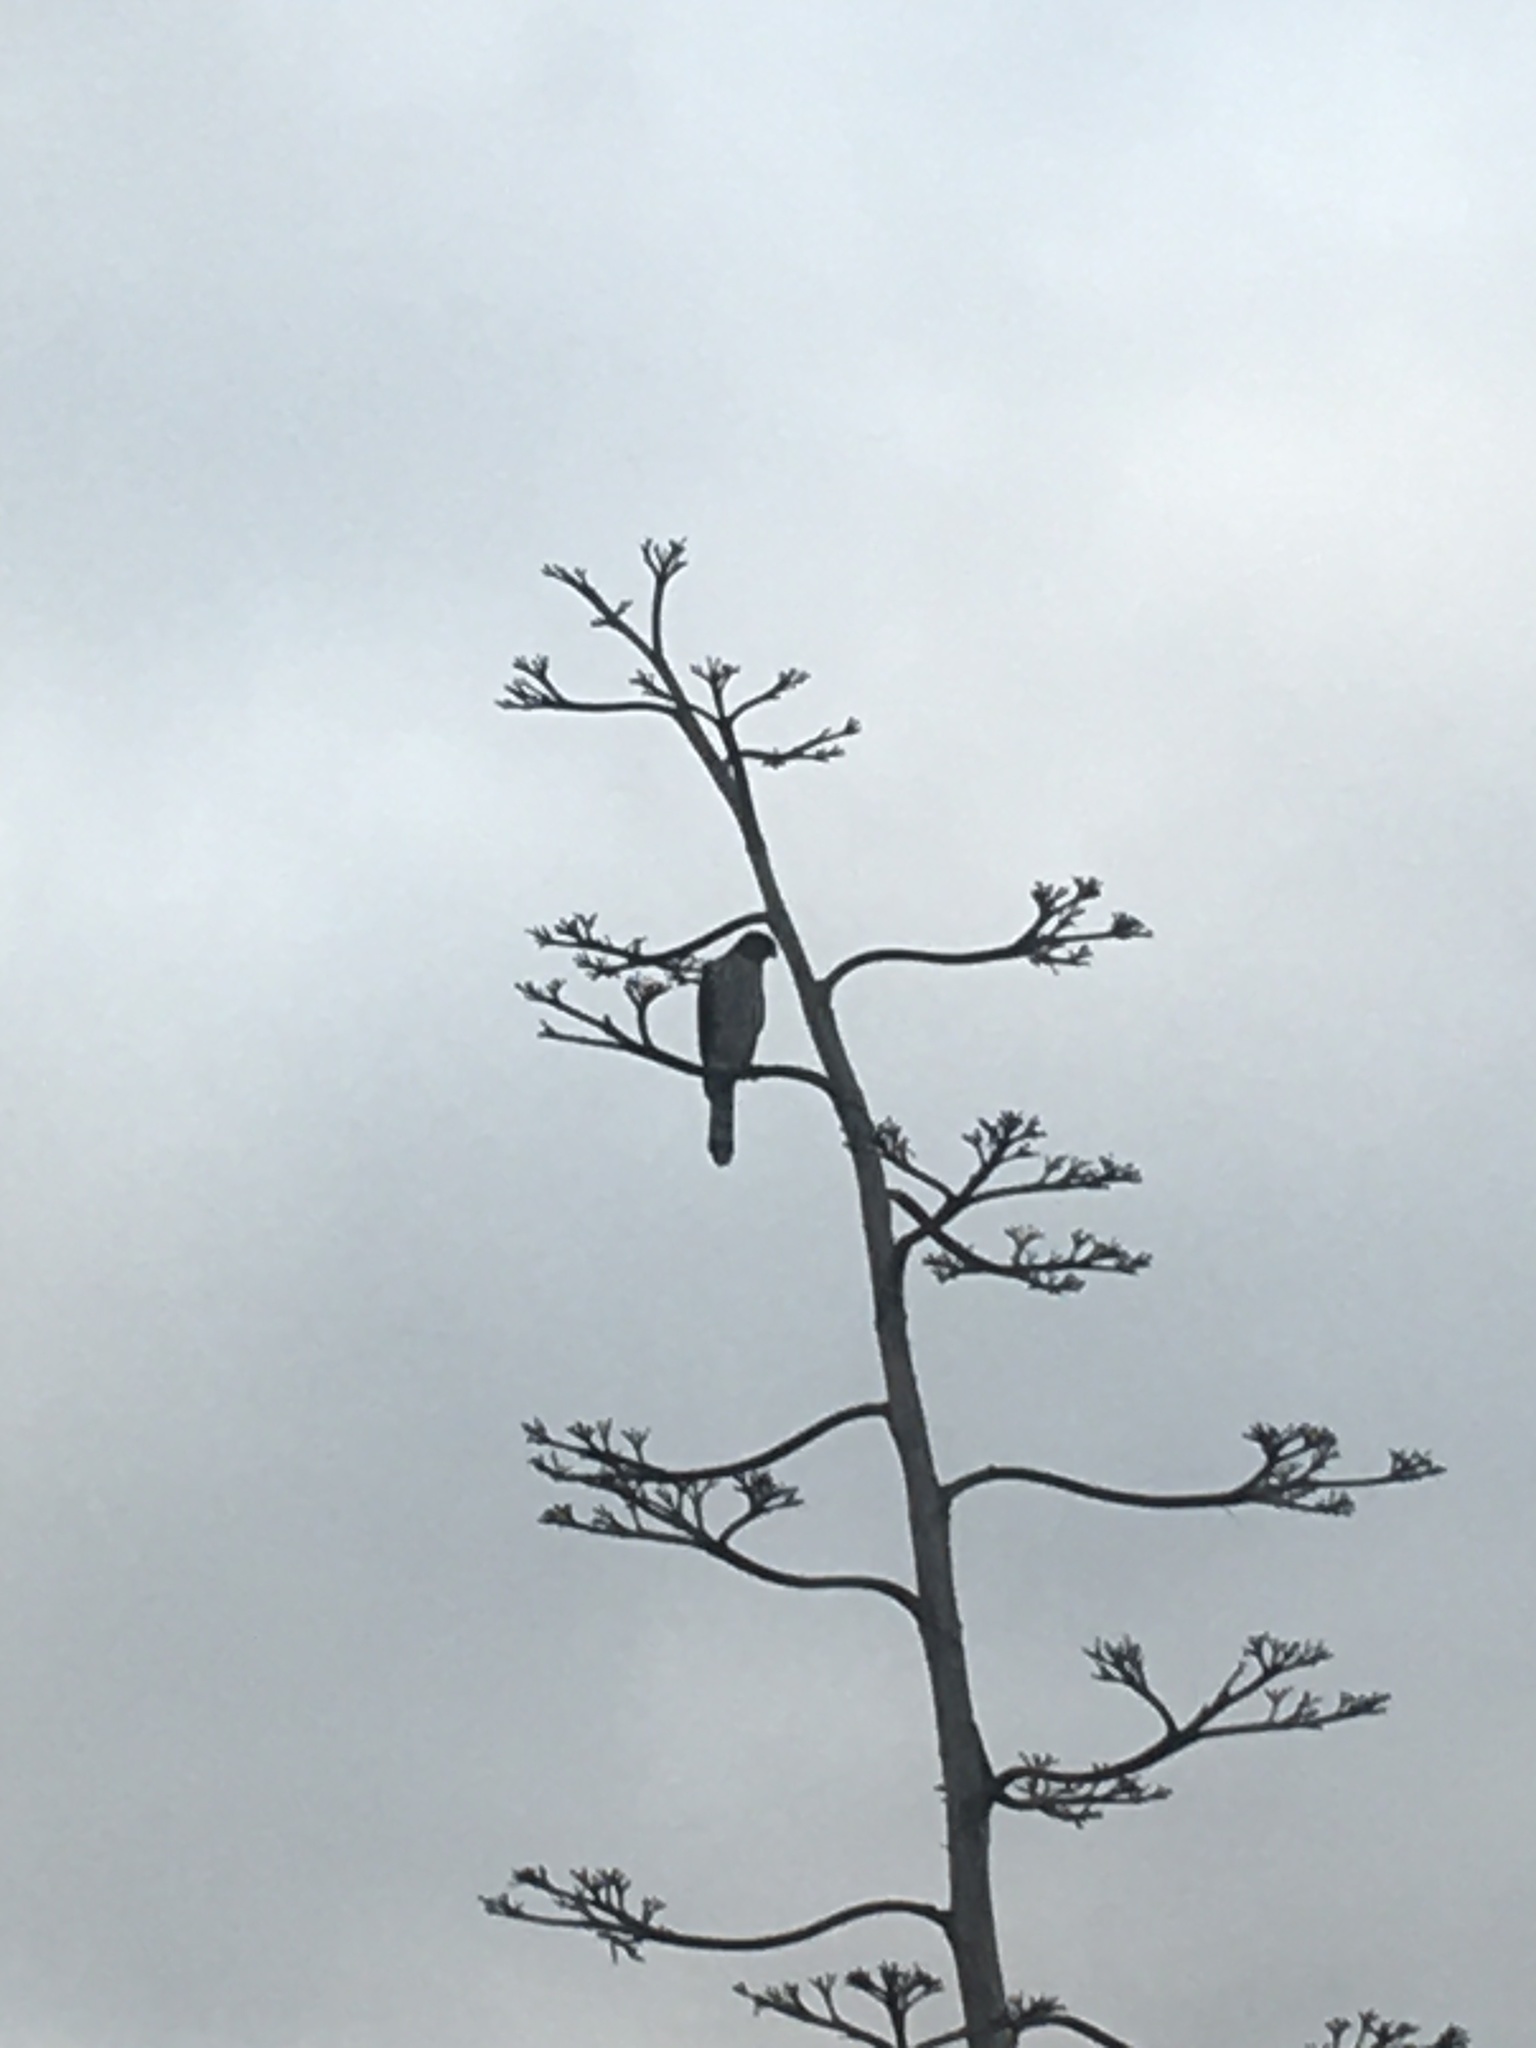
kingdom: Animalia
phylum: Chordata
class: Aves
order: Accipitriformes
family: Accipitridae
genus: Accipiter
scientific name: Accipiter cooperii
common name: Cooper's hawk
